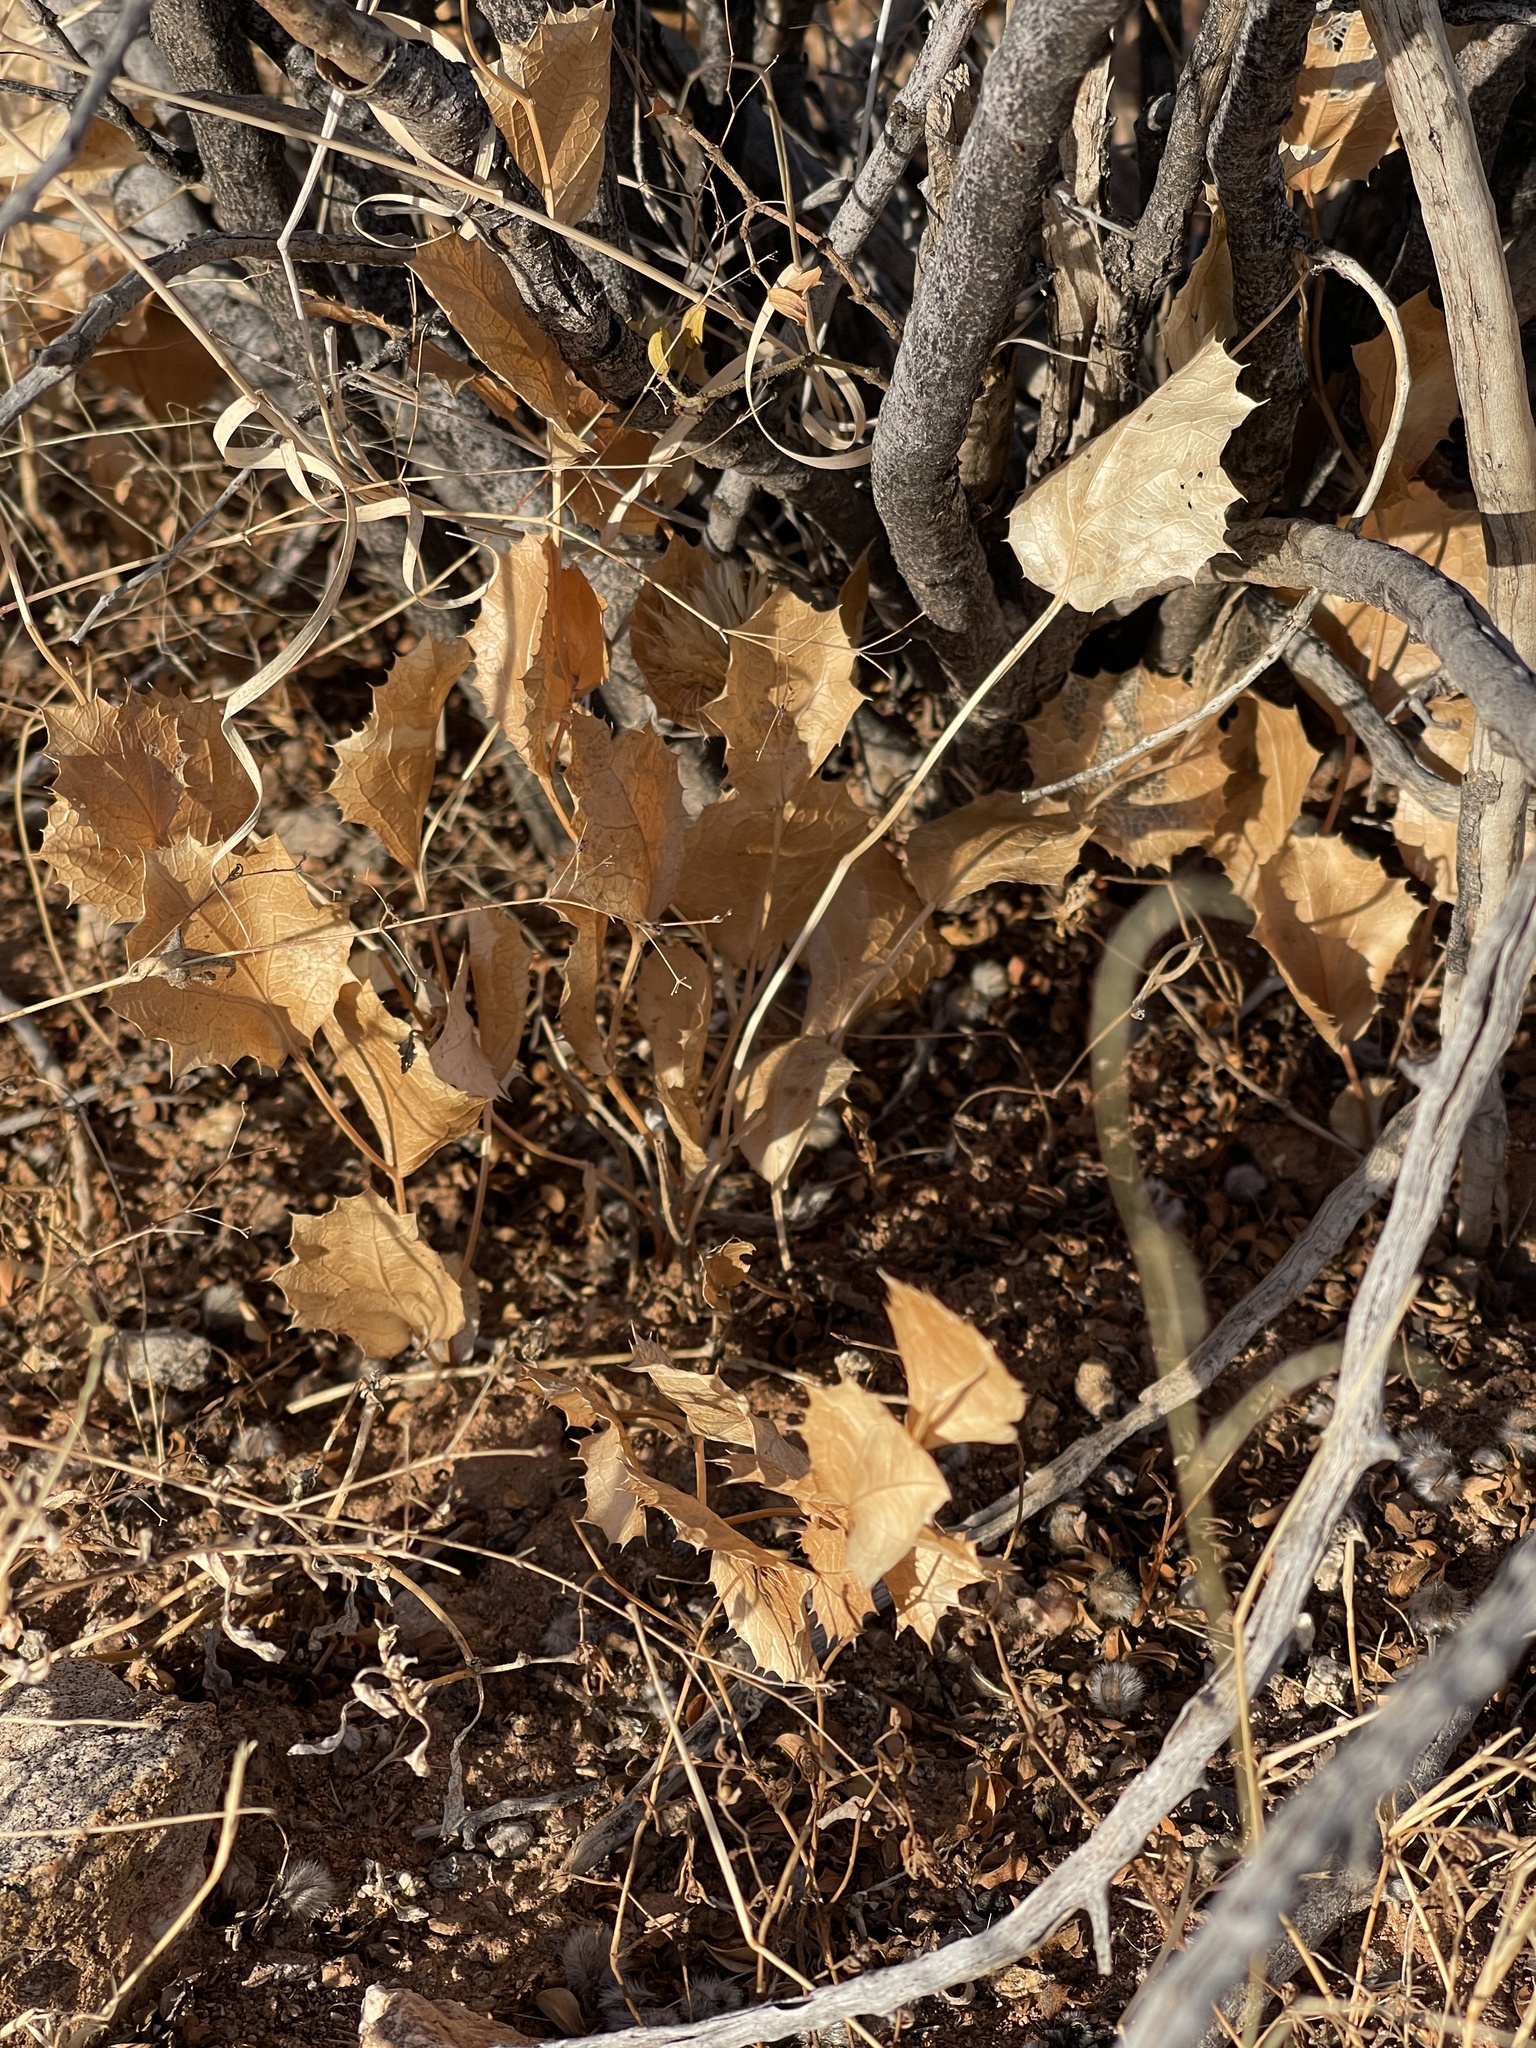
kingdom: Plantae
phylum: Tracheophyta
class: Magnoliopsida
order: Asterales
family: Asteraceae
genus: Acourtia
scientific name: Acourtia nana
